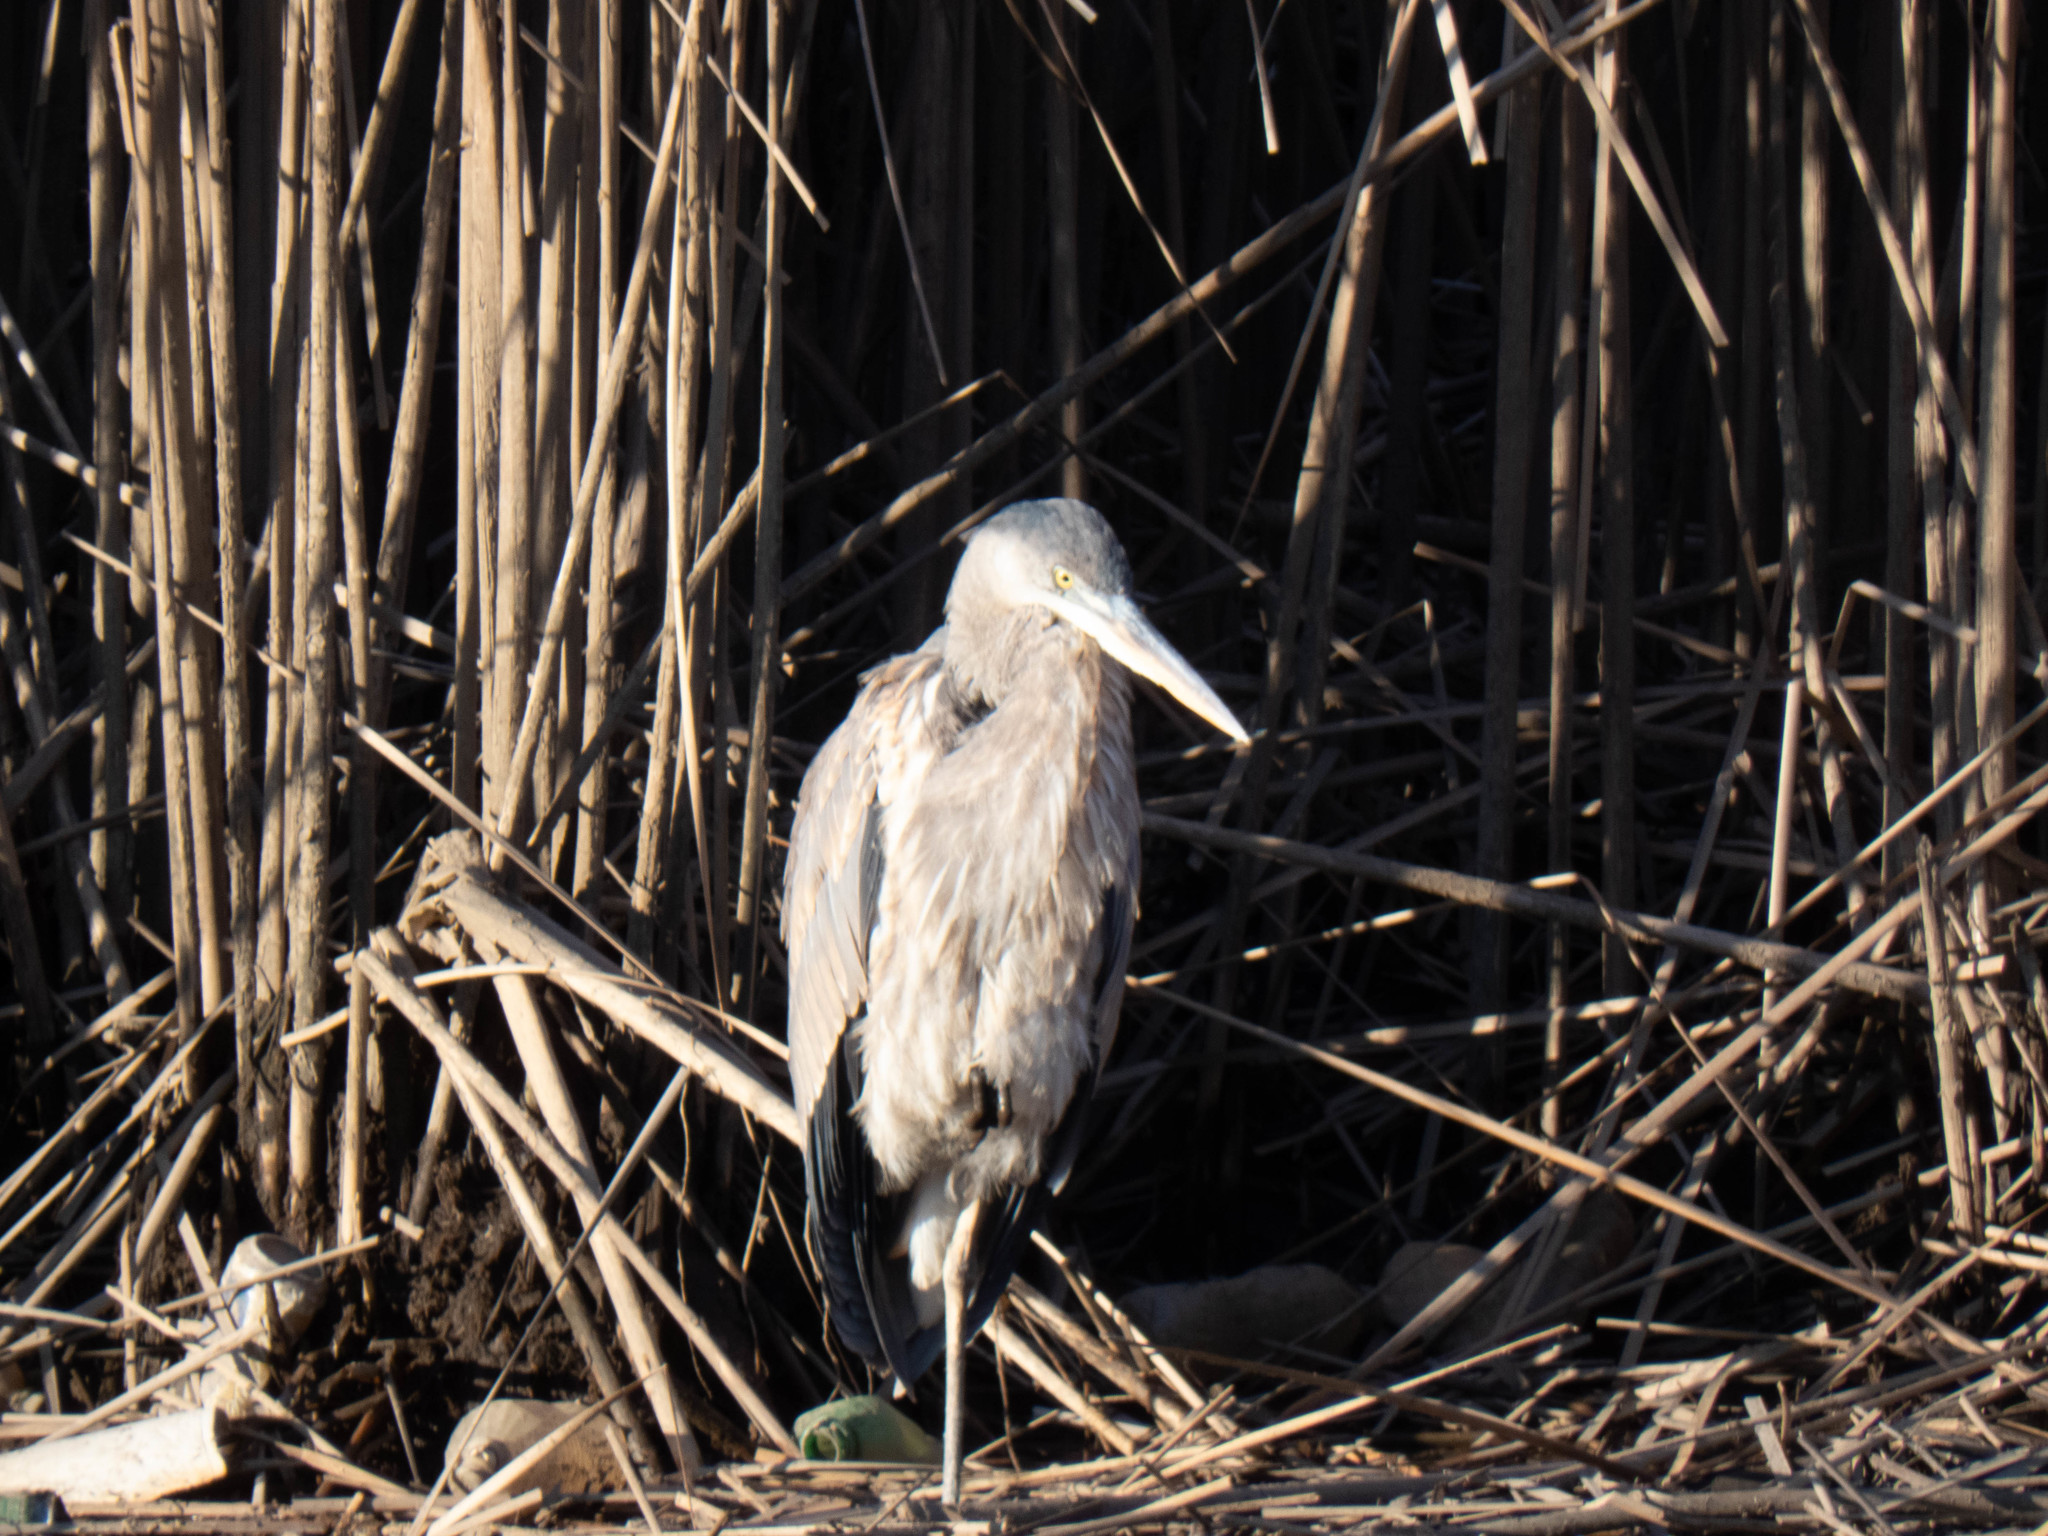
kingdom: Animalia
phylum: Chordata
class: Aves
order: Pelecaniformes
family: Ardeidae
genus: Ardea
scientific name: Ardea herodias
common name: Great blue heron
